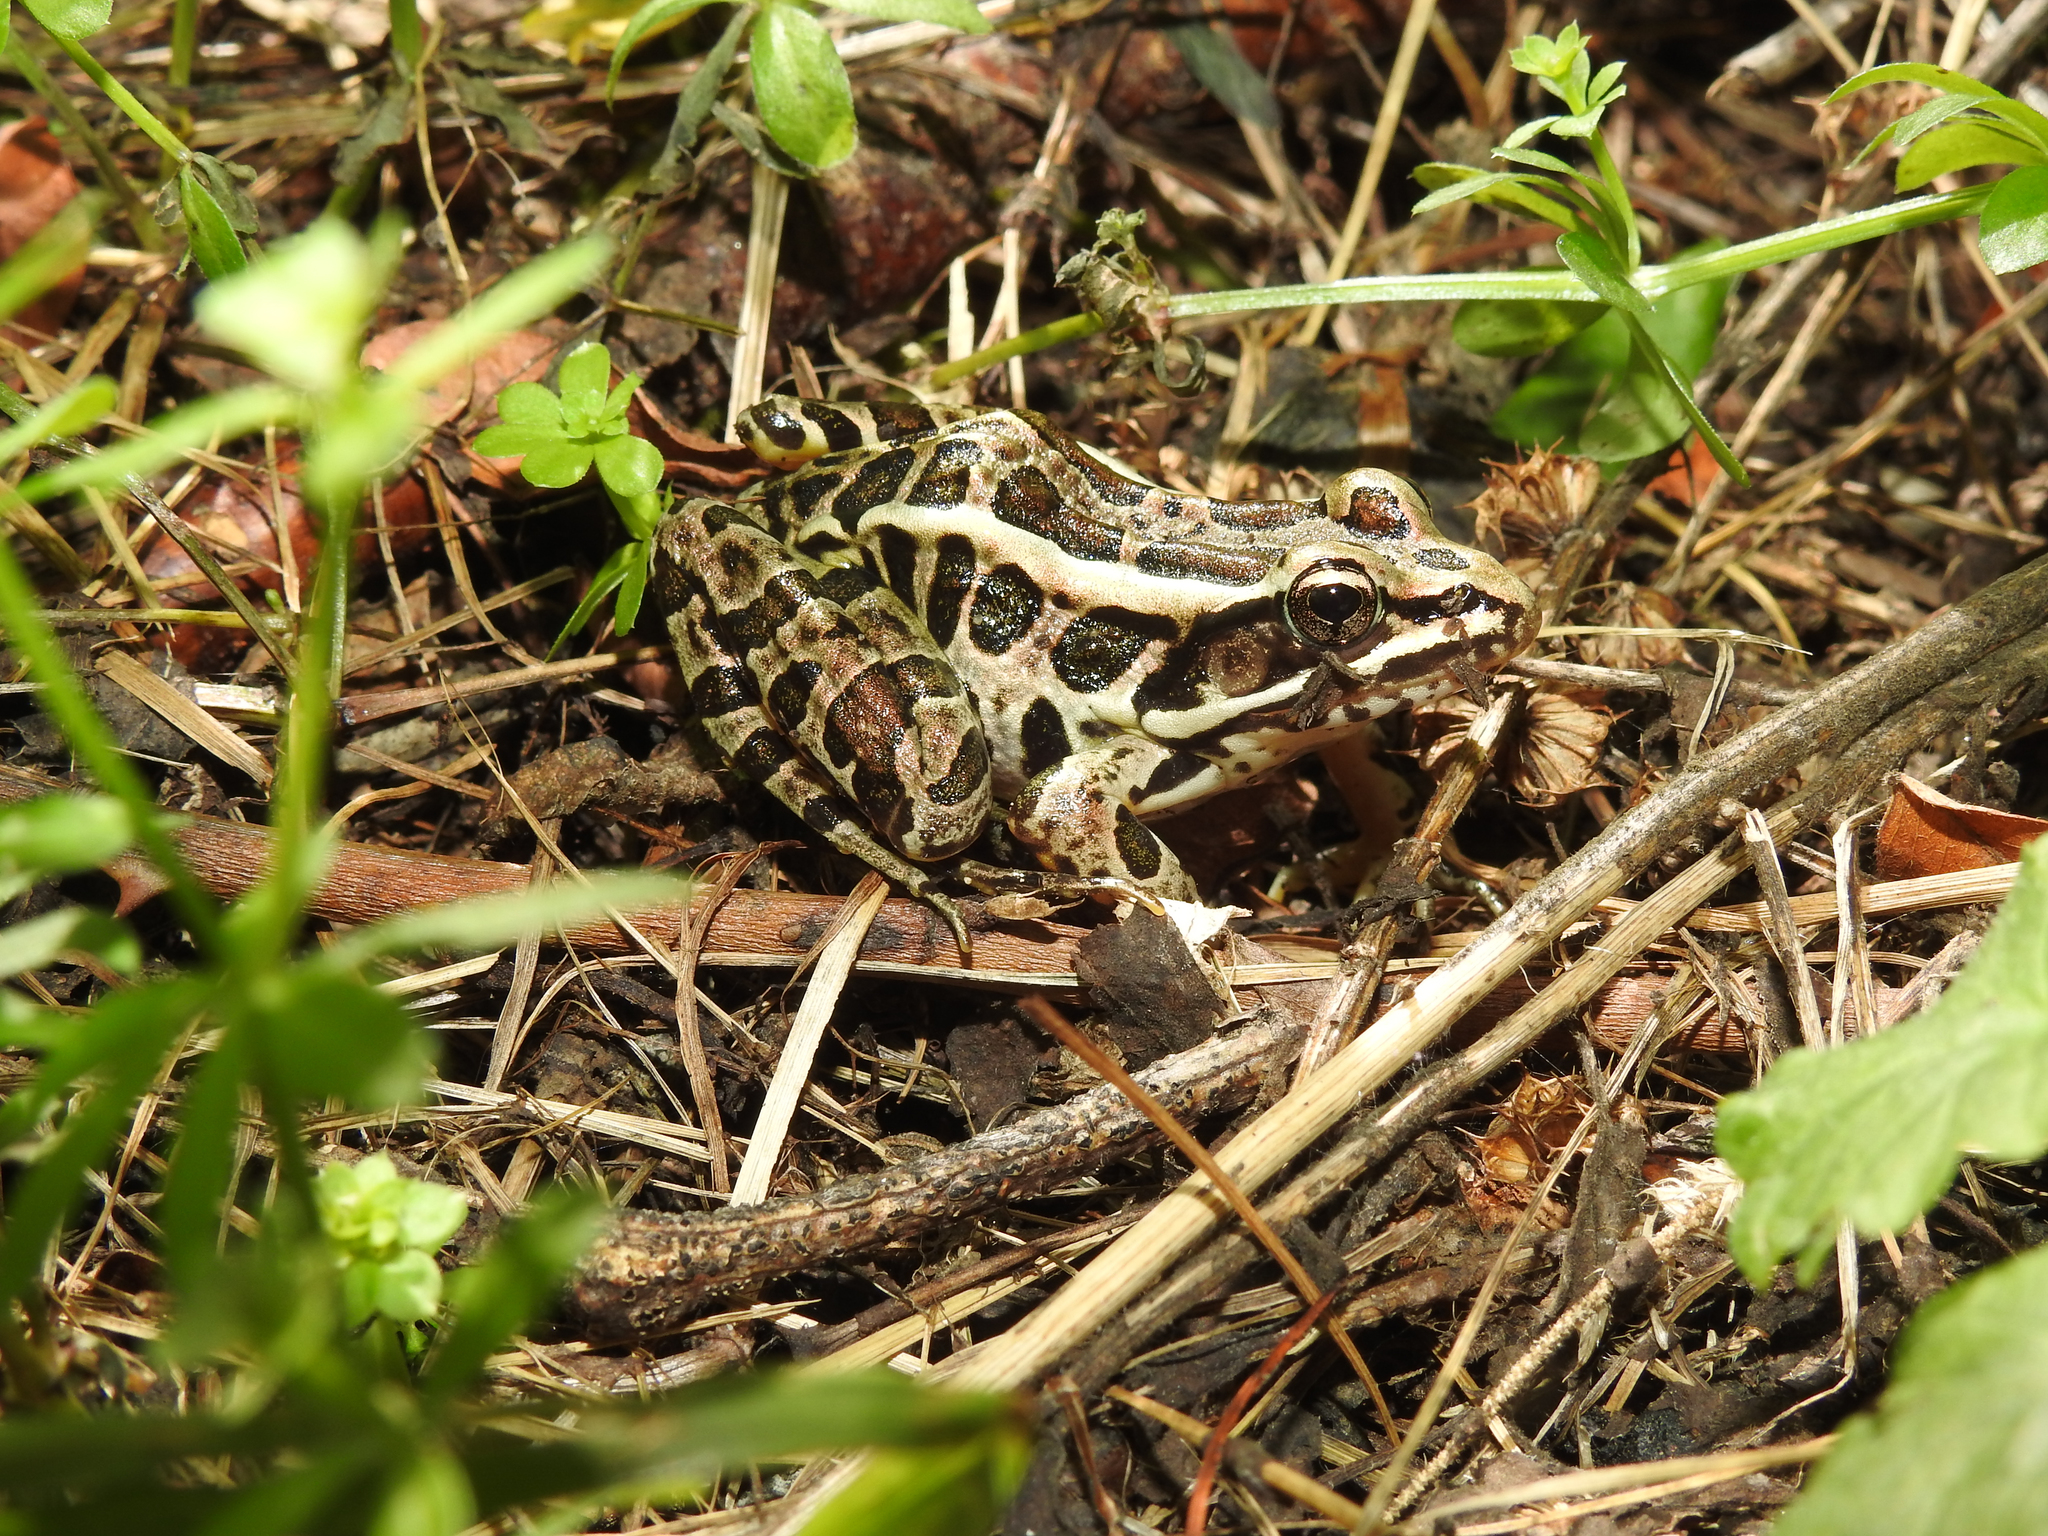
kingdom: Animalia
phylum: Chordata
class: Amphibia
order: Anura
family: Ranidae
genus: Lithobates
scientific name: Lithobates palustris
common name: Pickerel frog
